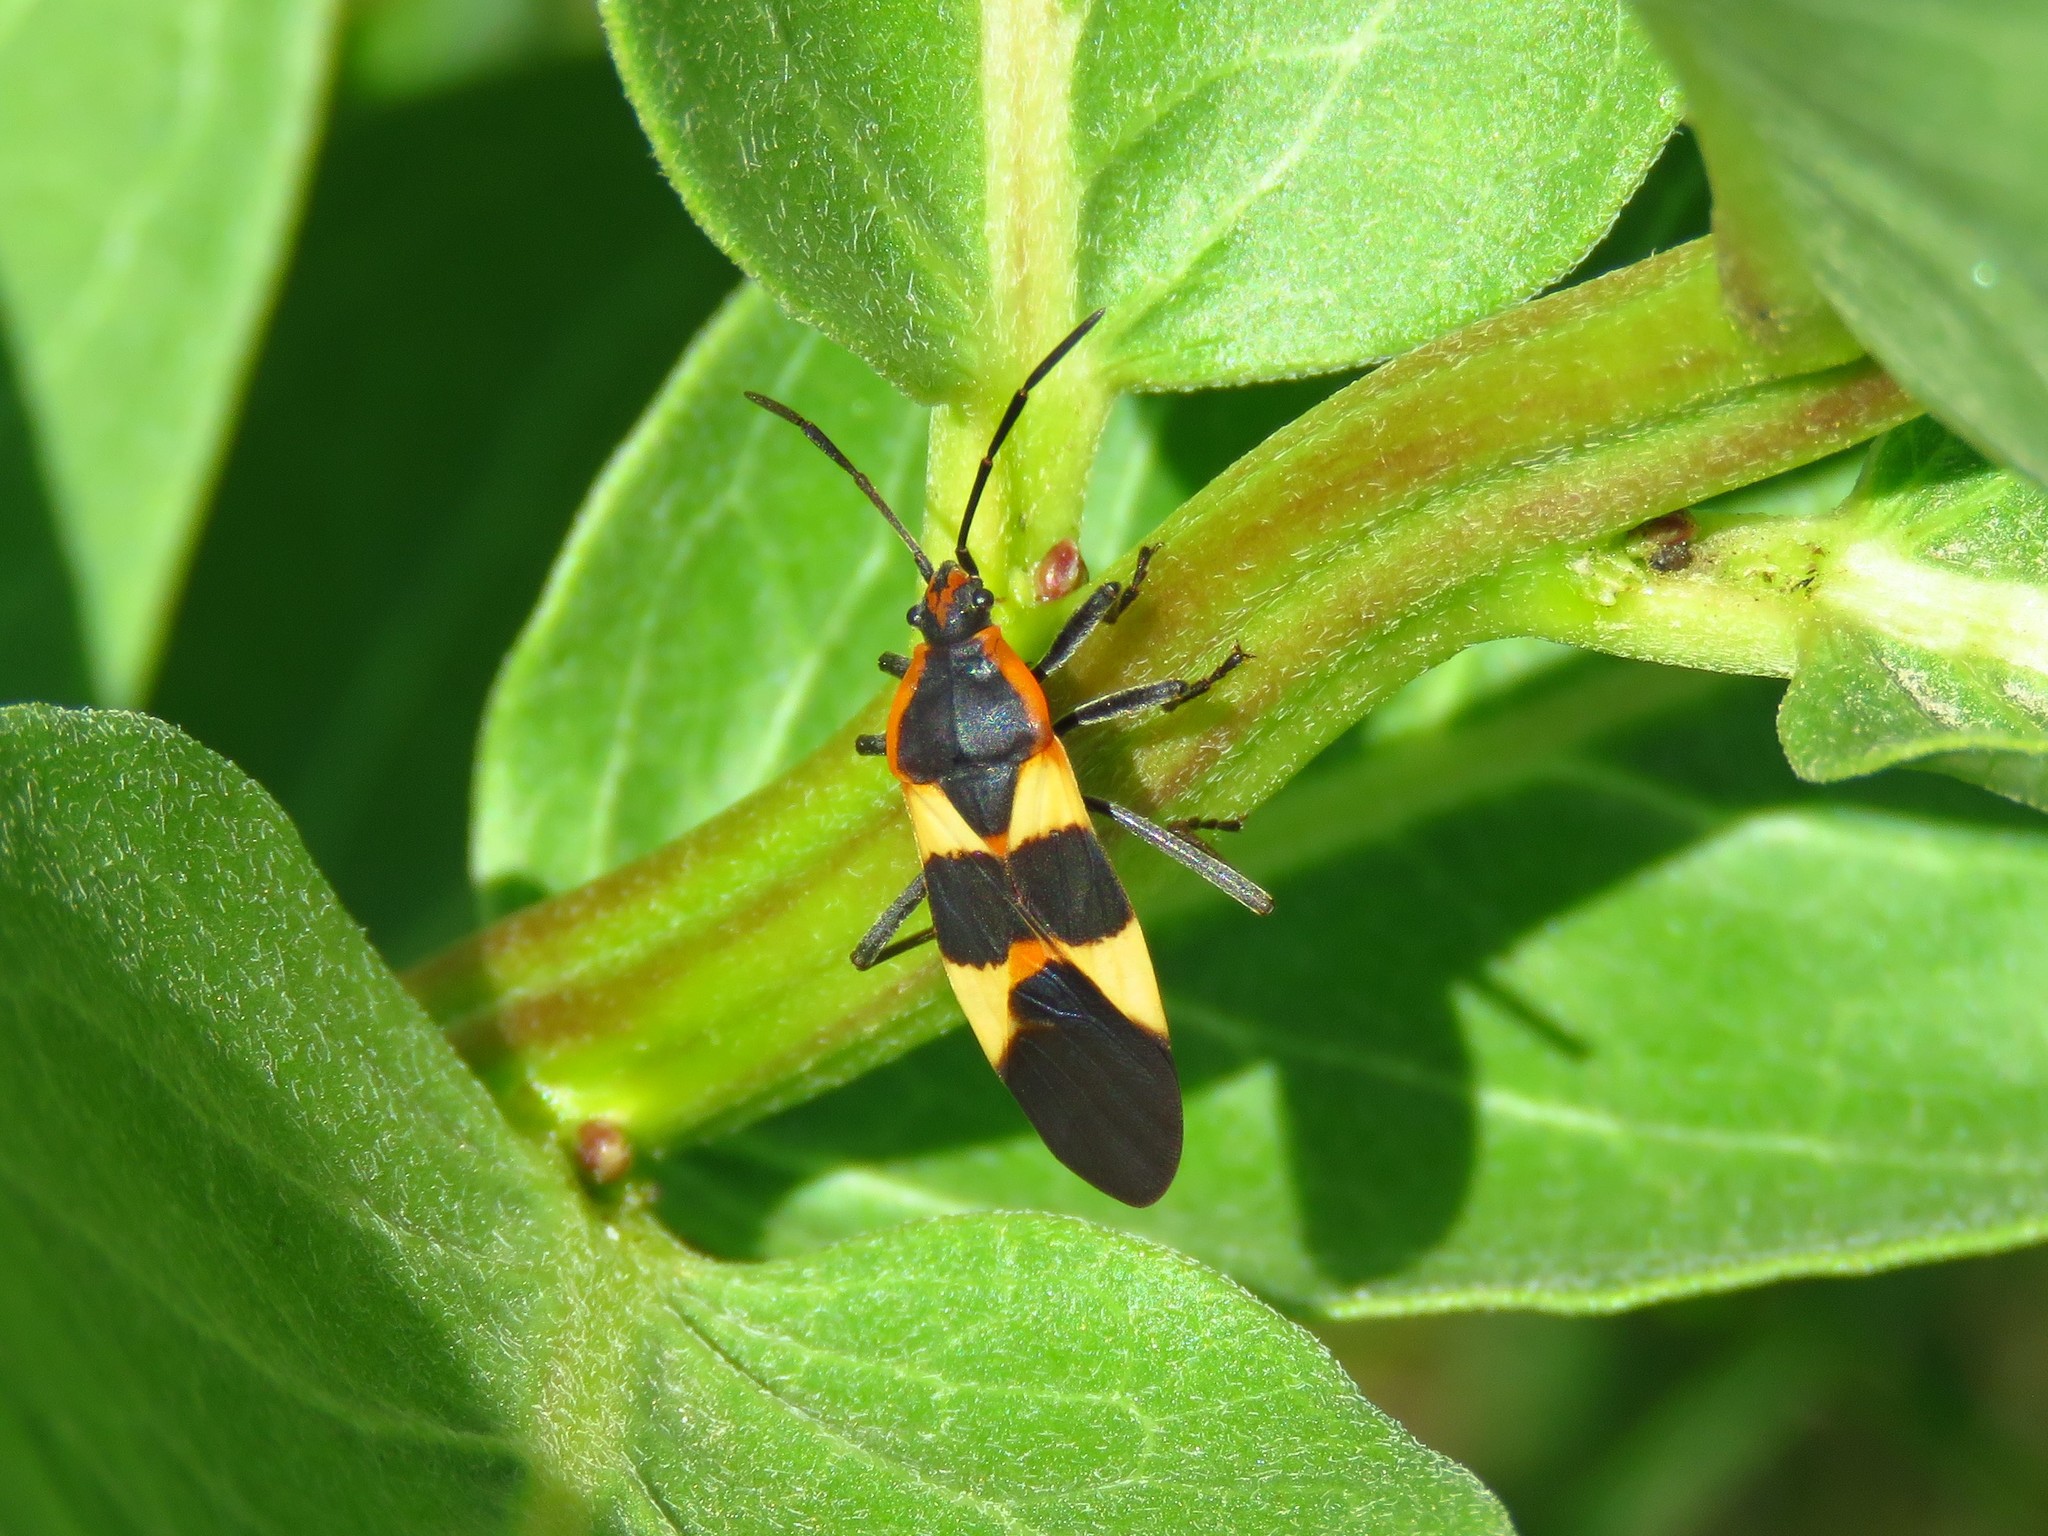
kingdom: Animalia
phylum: Arthropoda
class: Insecta
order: Hemiptera
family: Lygaeidae
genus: Oncopeltus
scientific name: Oncopeltus fasciatus
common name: Large milkweed bug
